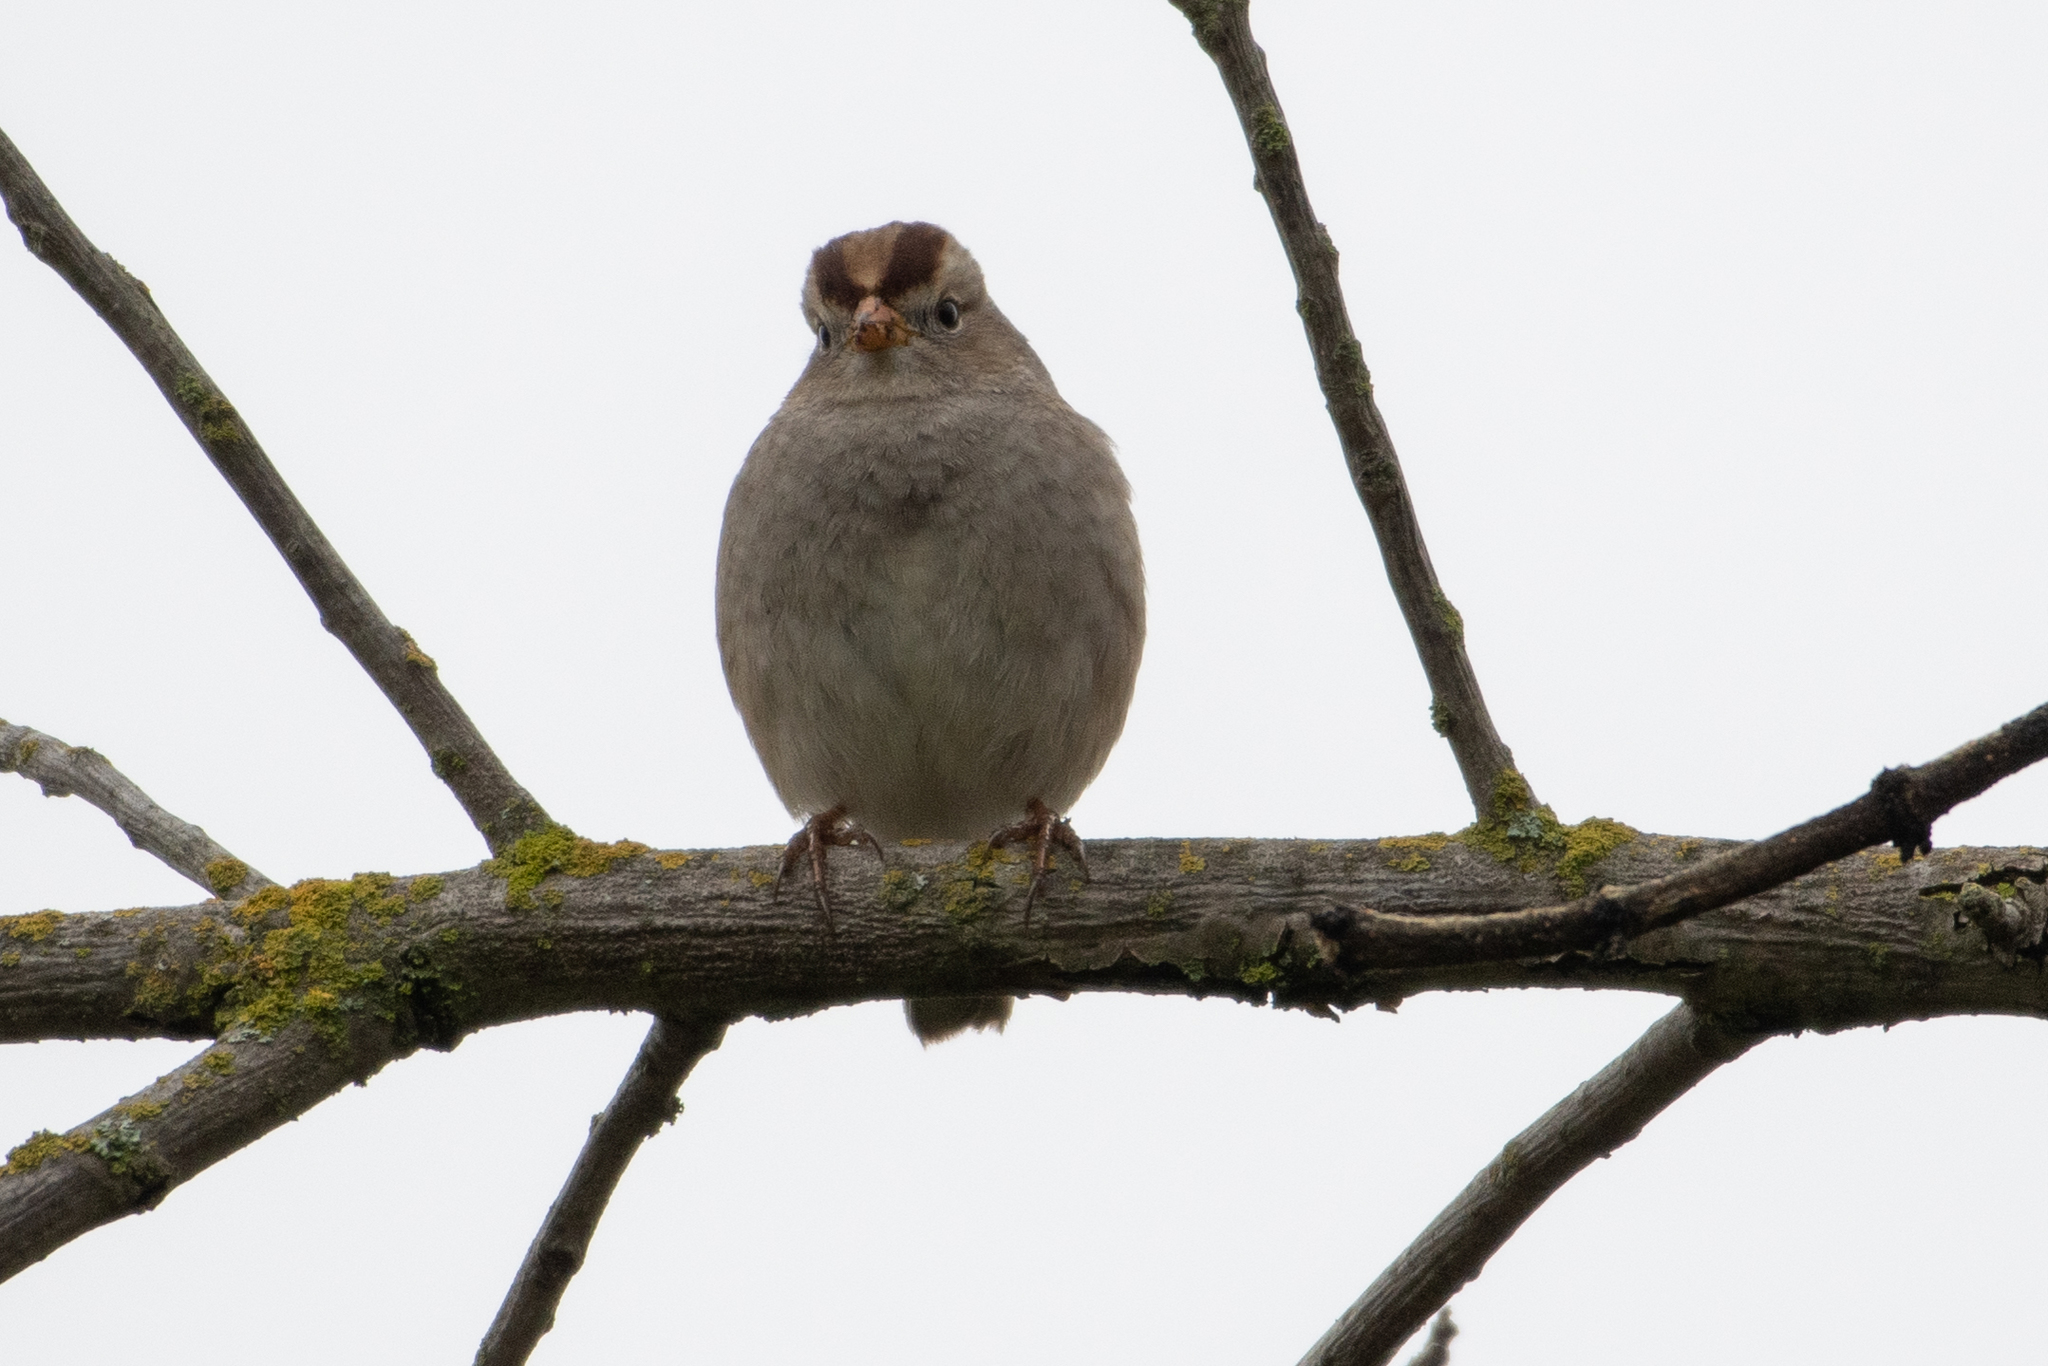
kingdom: Animalia
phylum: Chordata
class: Aves
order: Passeriformes
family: Passerellidae
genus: Zonotrichia
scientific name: Zonotrichia leucophrys
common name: White-crowned sparrow
